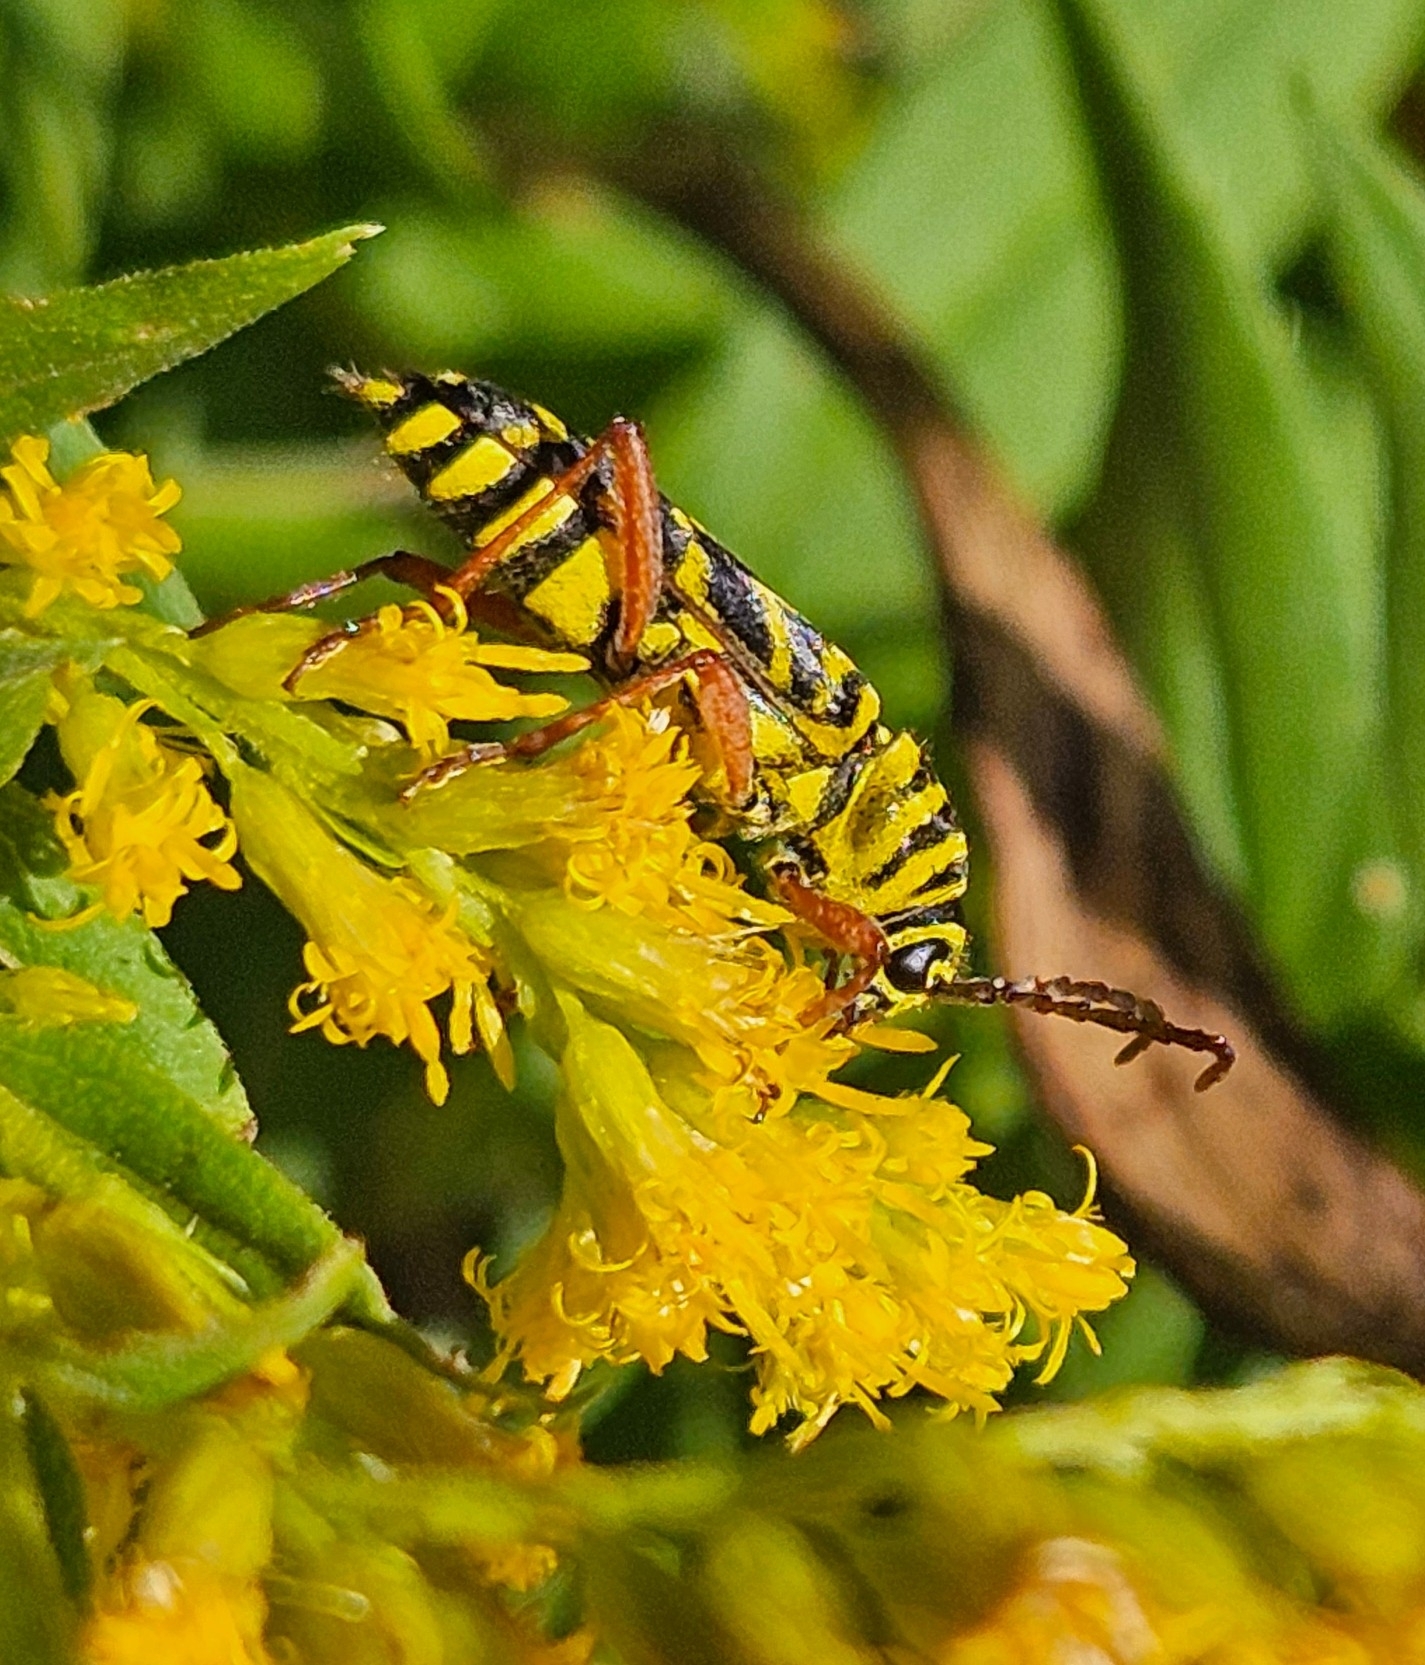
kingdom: Animalia
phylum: Arthropoda
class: Insecta
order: Coleoptera
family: Cerambycidae
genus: Megacyllene
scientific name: Megacyllene robiniae
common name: Locust borer
